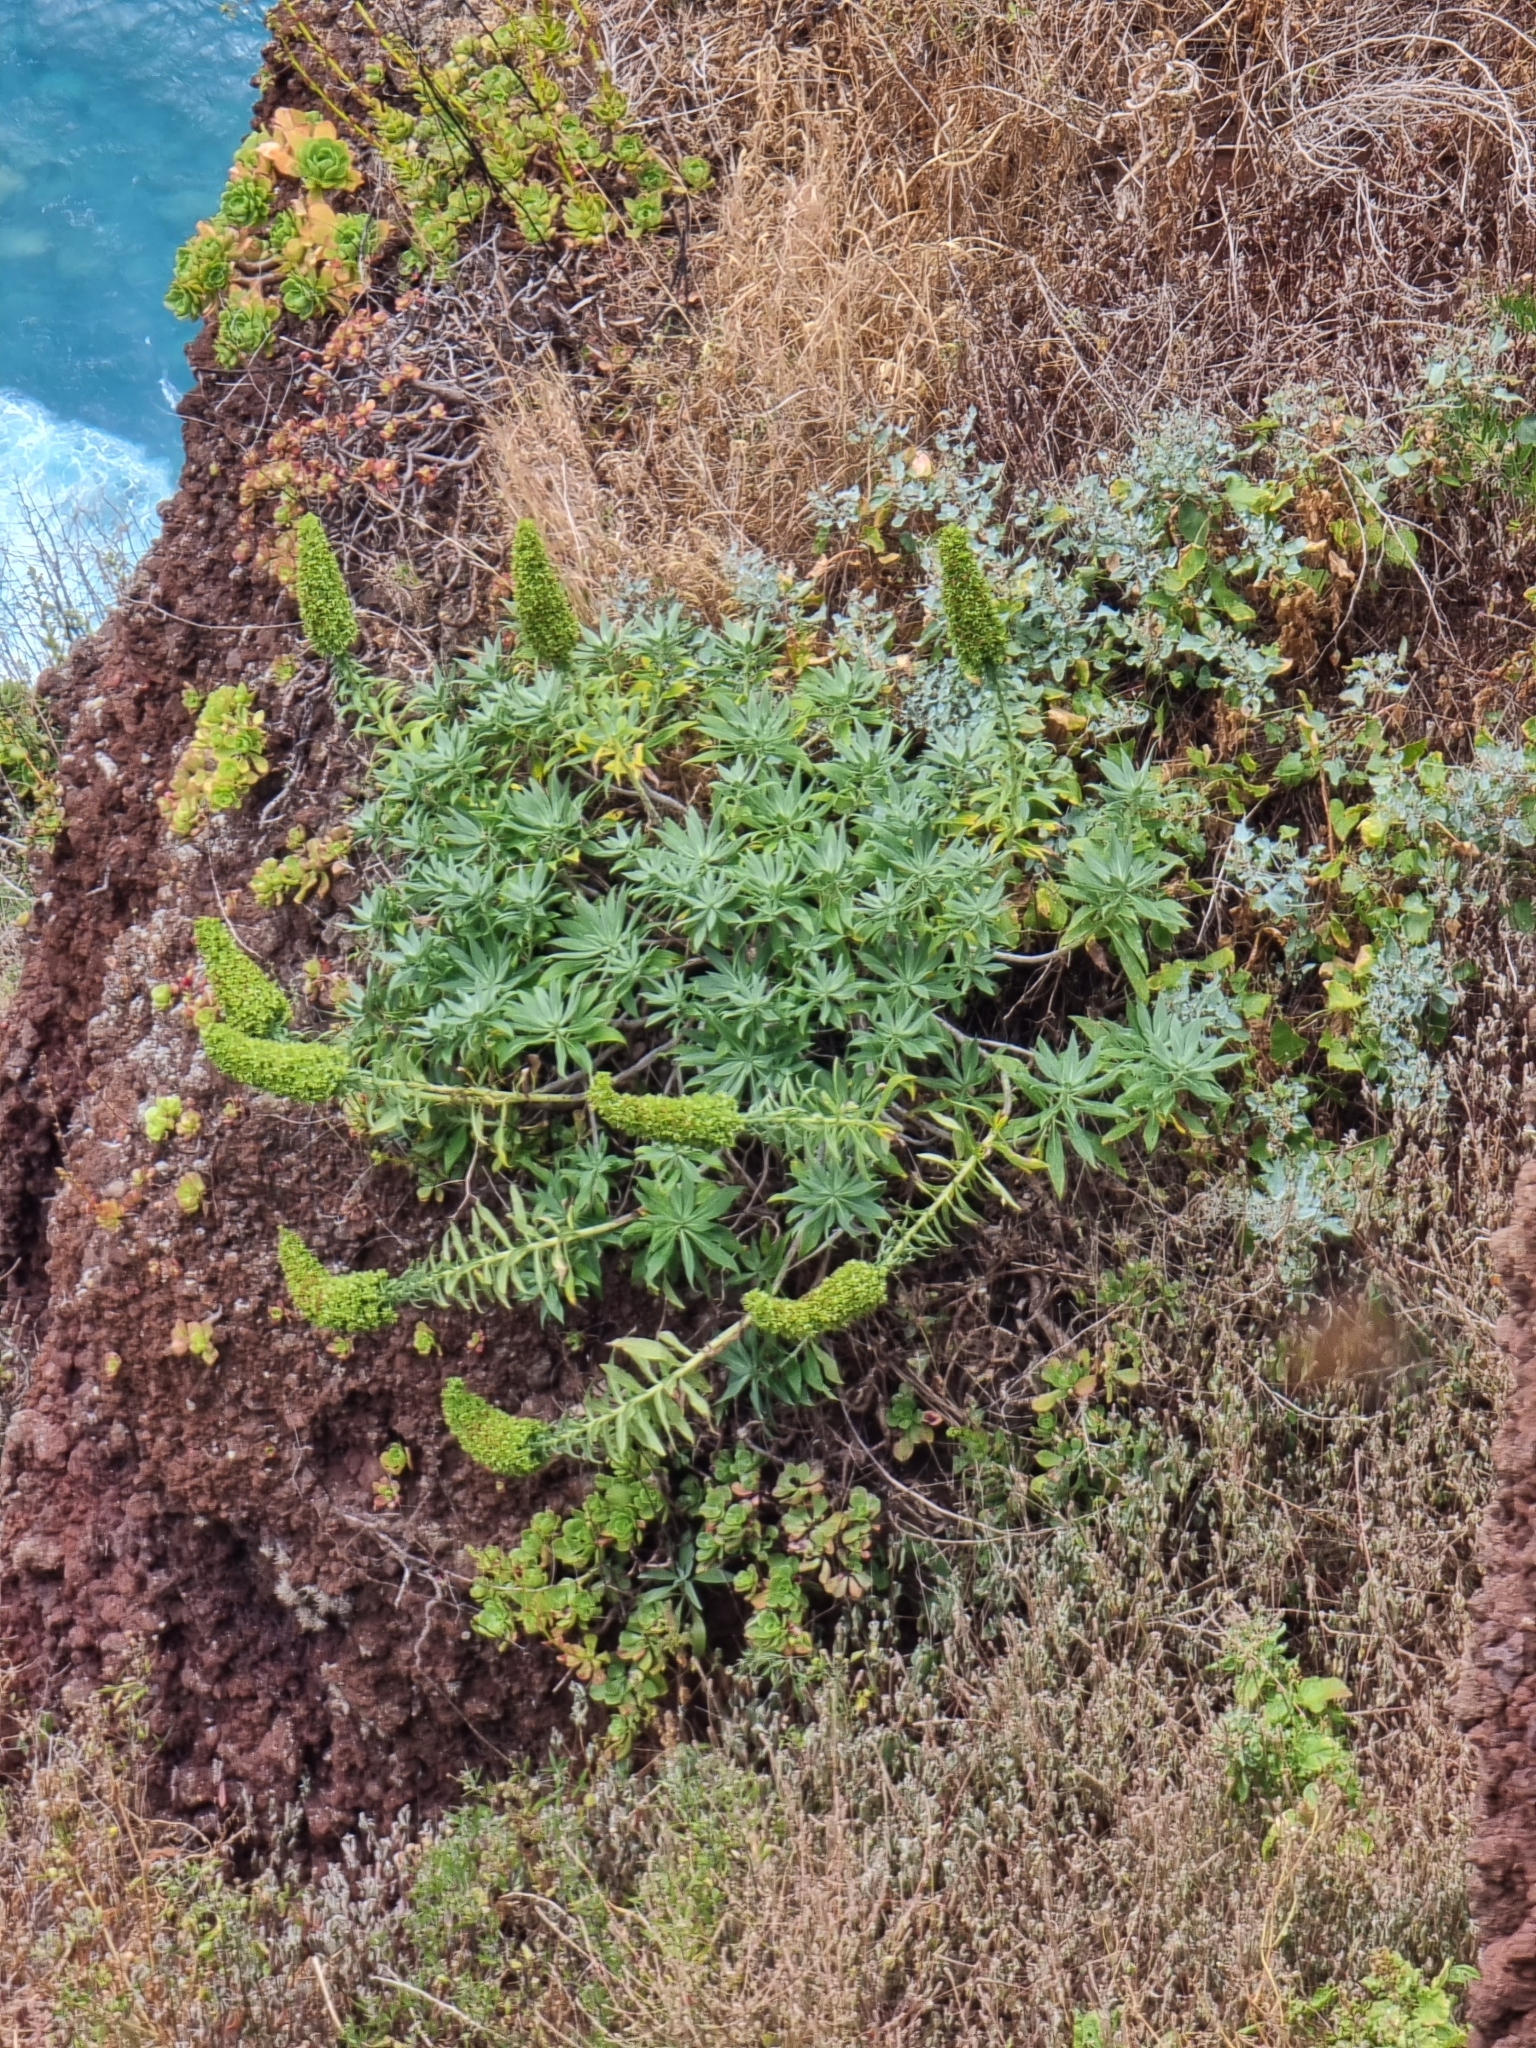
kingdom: Plantae
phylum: Tracheophyta
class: Magnoliopsida
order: Boraginales
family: Boraginaceae
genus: Echium
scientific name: Echium nervosum
